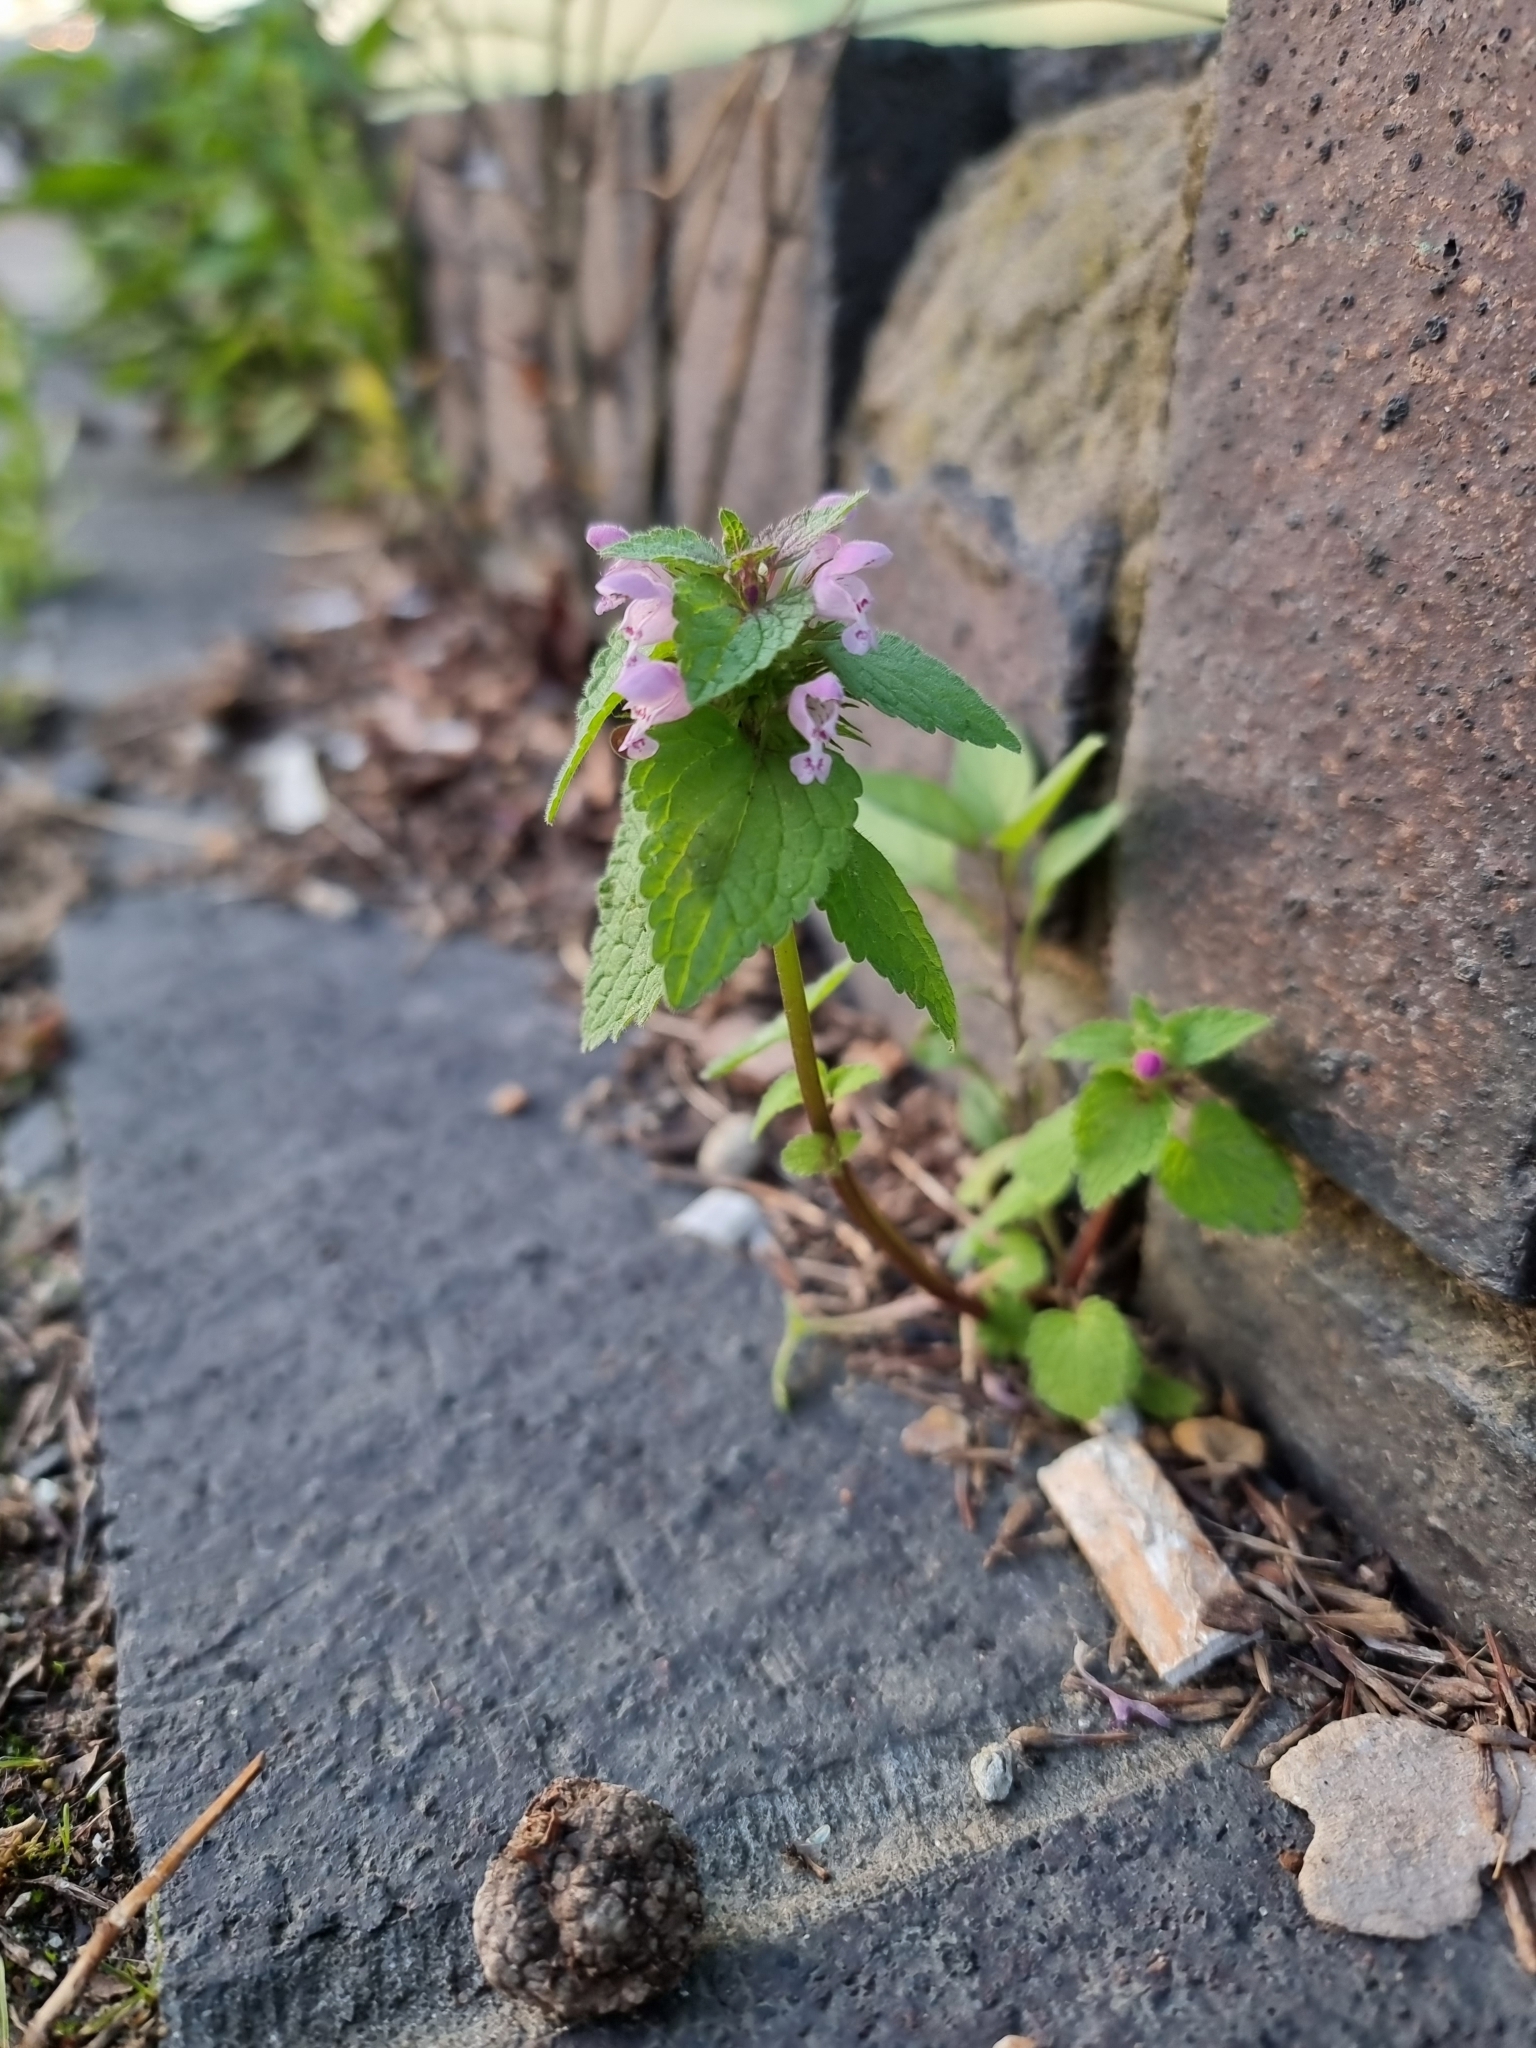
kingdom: Plantae
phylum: Tracheophyta
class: Magnoliopsida
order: Lamiales
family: Lamiaceae
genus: Lamium
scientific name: Lamium purpureum
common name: Red dead-nettle
